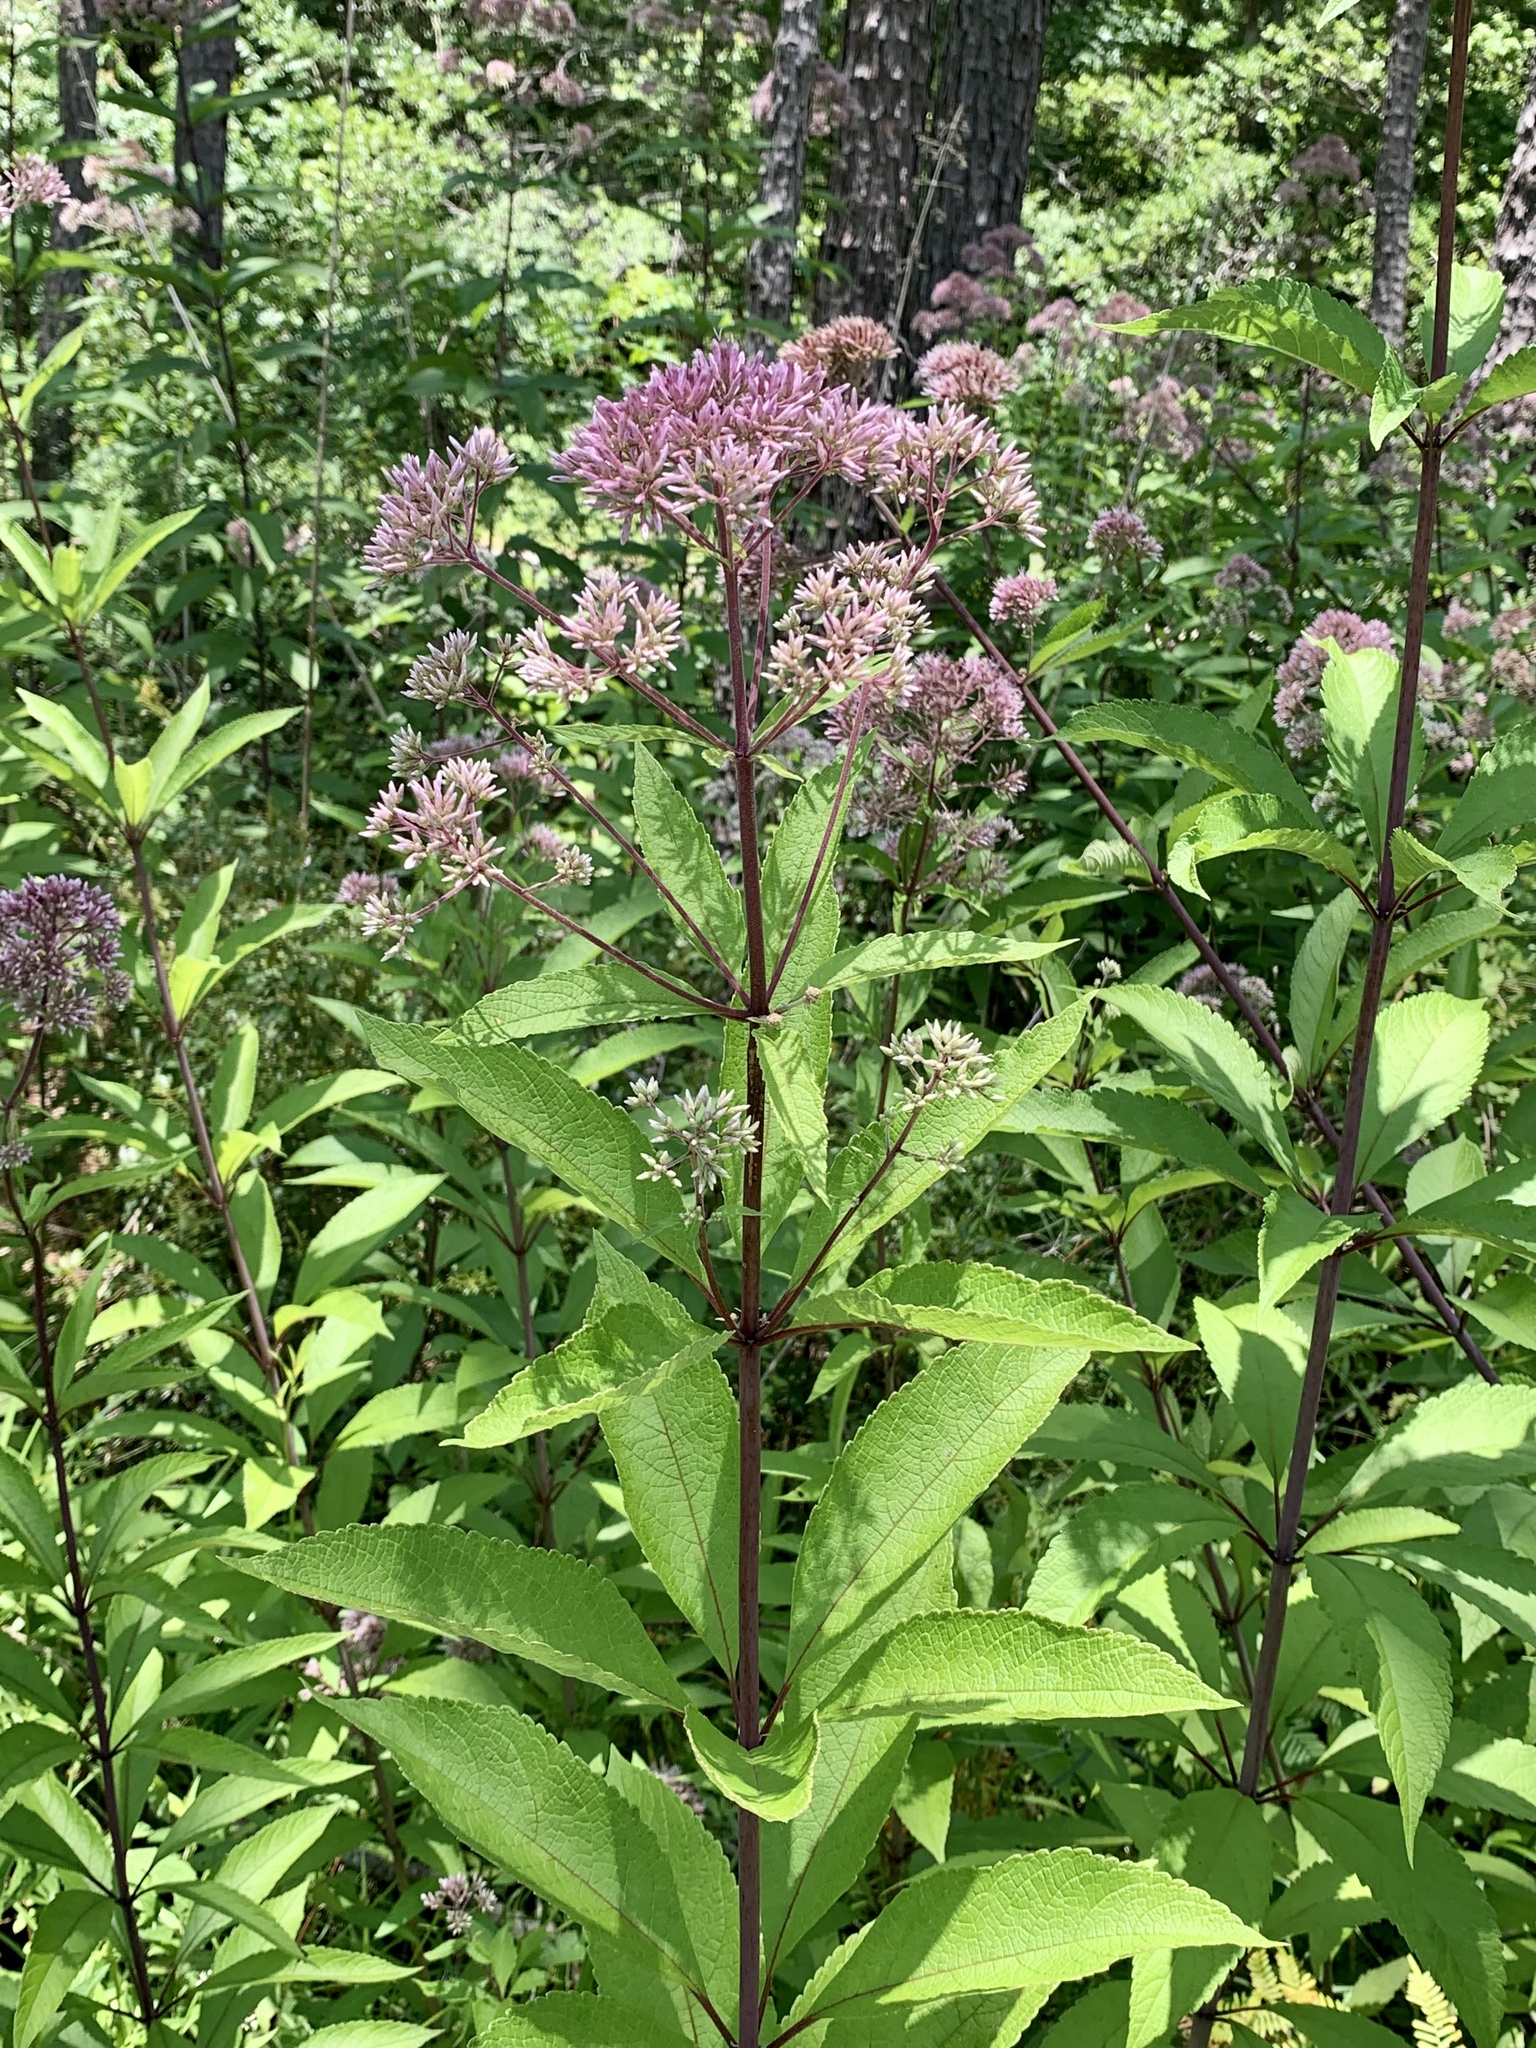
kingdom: Plantae
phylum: Tracheophyta
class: Magnoliopsida
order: Asterales
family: Asteraceae
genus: Eutrochium
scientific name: Eutrochium fistulosum
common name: Trumpetweed
